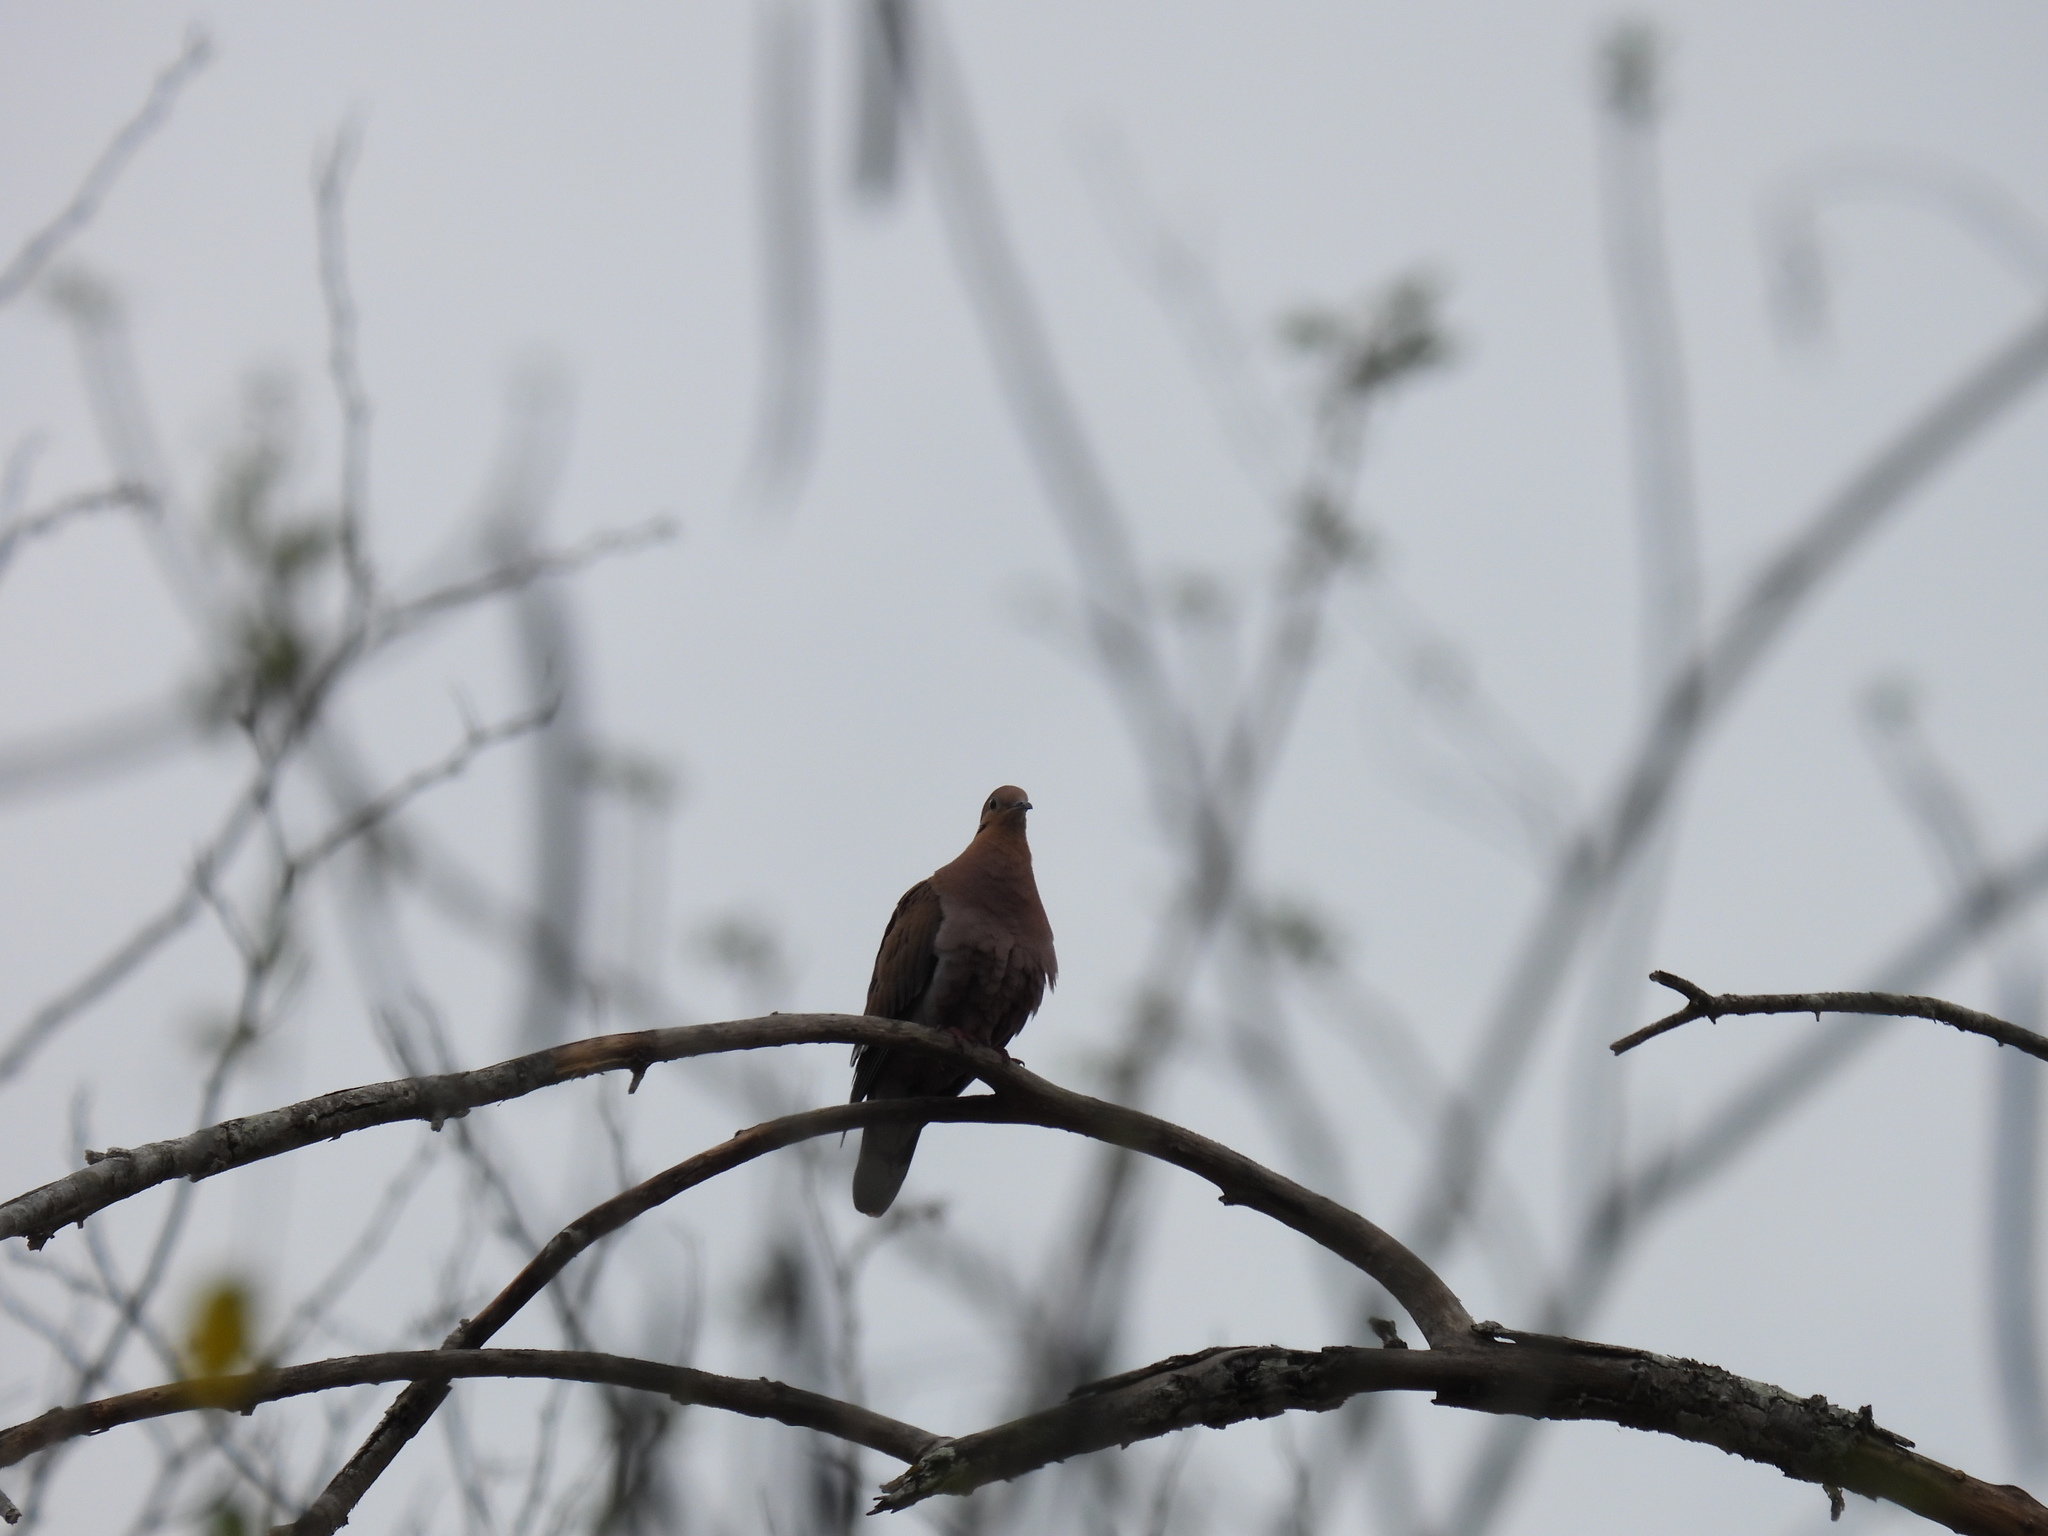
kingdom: Animalia
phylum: Chordata
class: Aves
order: Columbiformes
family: Columbidae
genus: Zenaida
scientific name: Zenaida aurita
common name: Zenaida dove
